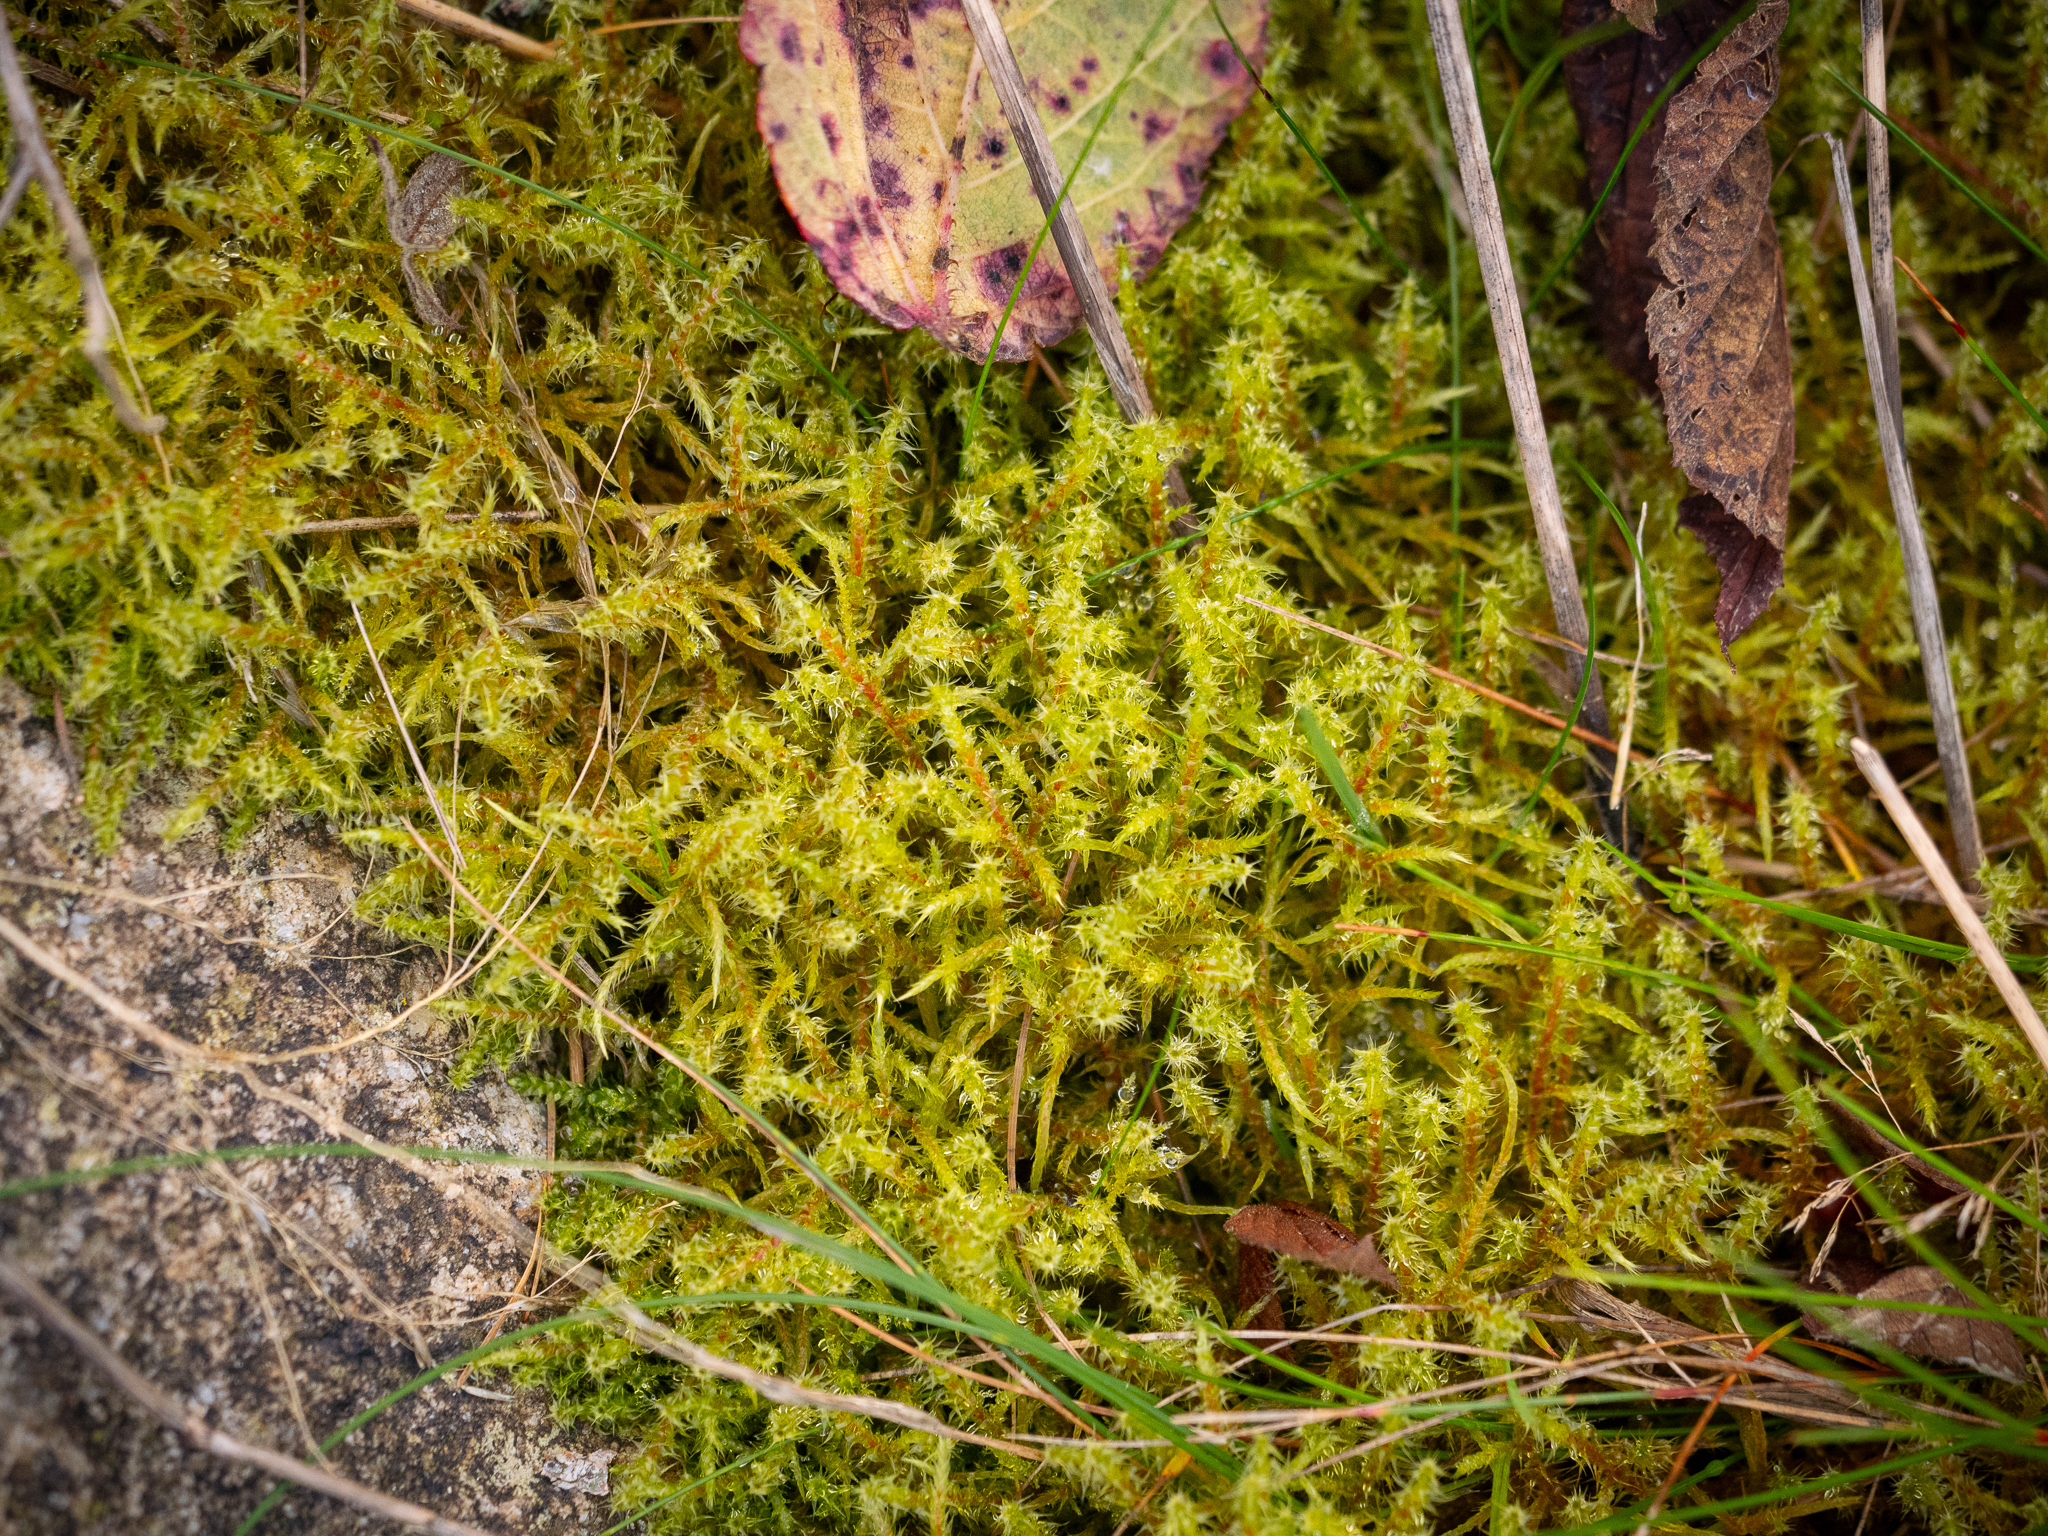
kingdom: Plantae
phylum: Bryophyta
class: Bryopsida
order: Hypnales
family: Hylocomiaceae
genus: Rhytidiadelphus
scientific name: Rhytidiadelphus squarrosus
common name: Springy turf-moss
